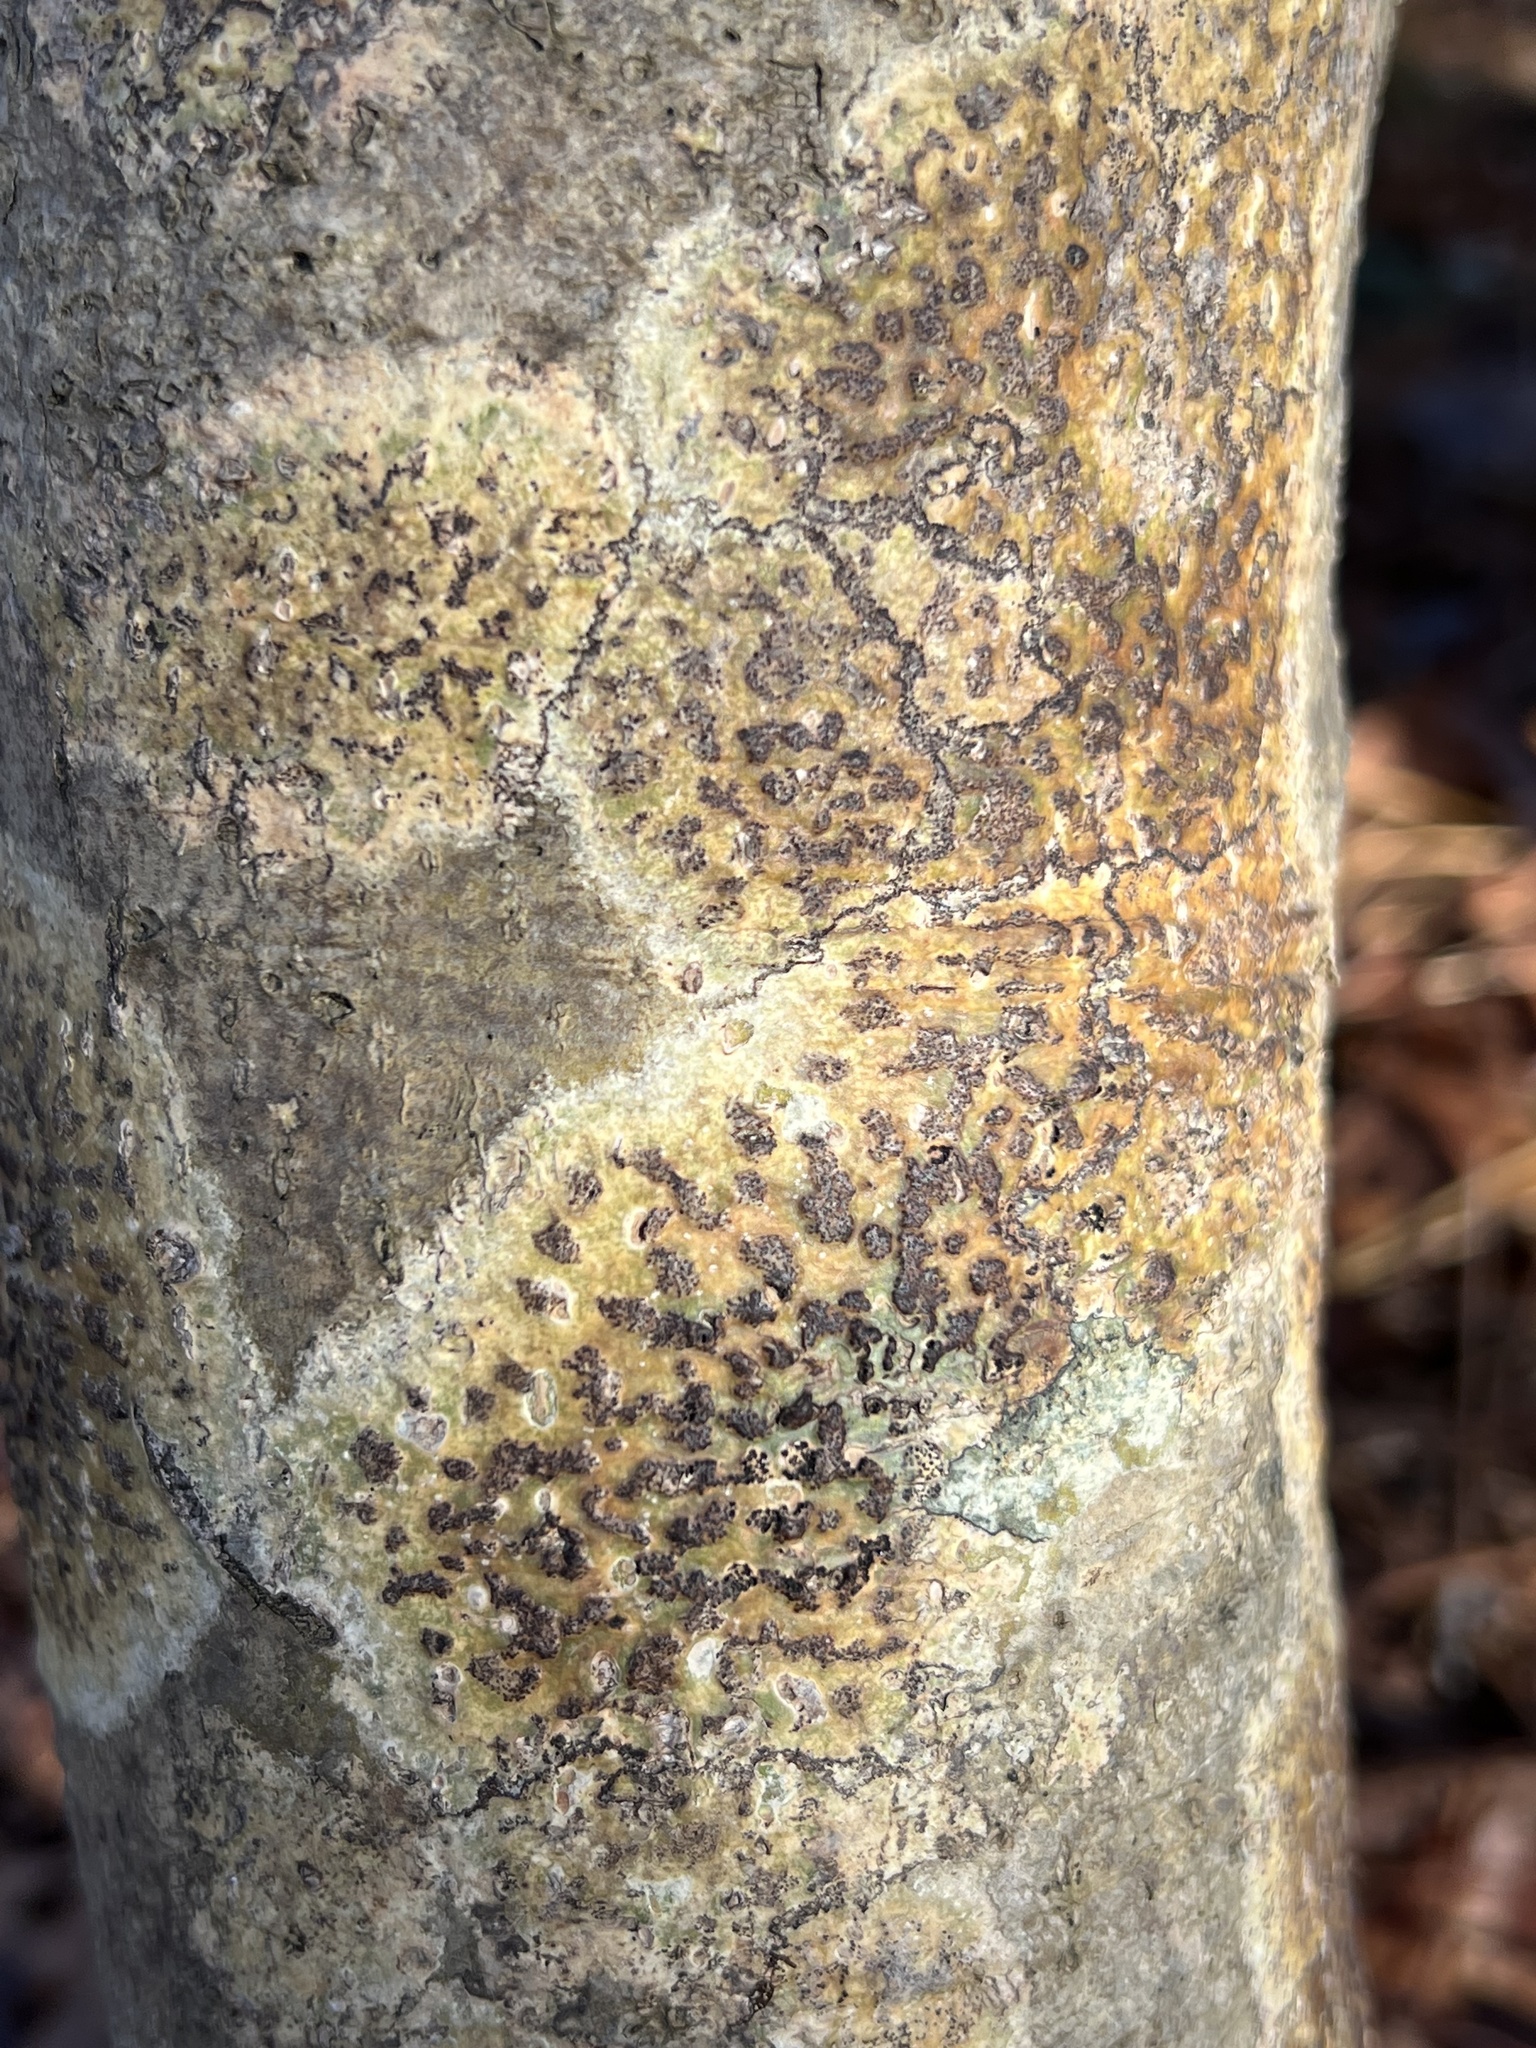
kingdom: Fungi
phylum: Ascomycota
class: Dothideomycetes
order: Trypetheliales
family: Trypetheliaceae
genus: Viridothelium
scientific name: Viridothelium virens
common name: Speckled blister lichen
